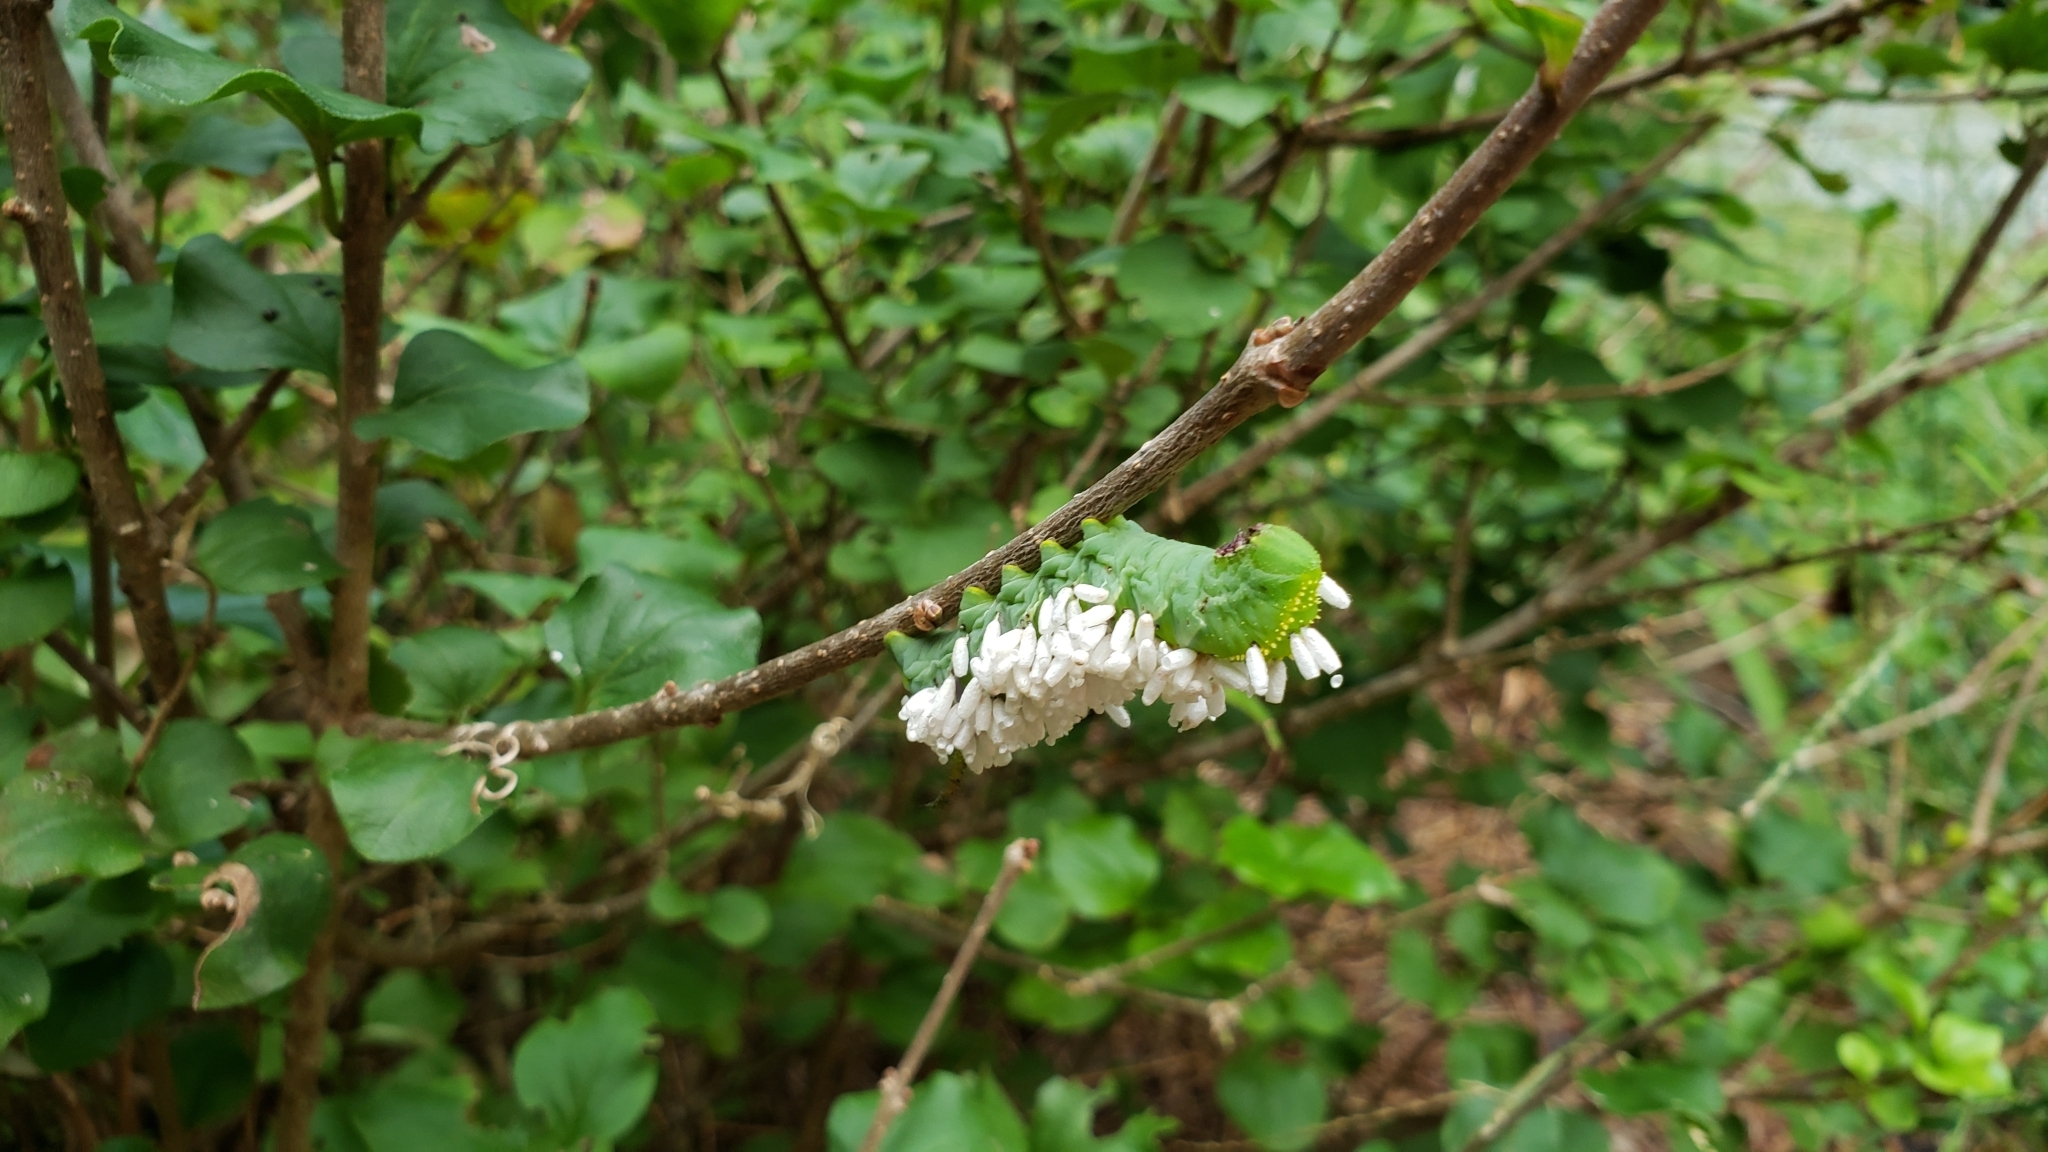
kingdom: Animalia
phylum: Arthropoda
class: Insecta
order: Hymenoptera
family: Braconidae
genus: Cotesia
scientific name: Cotesia congregata
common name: Hornworm parasitoid wasp
